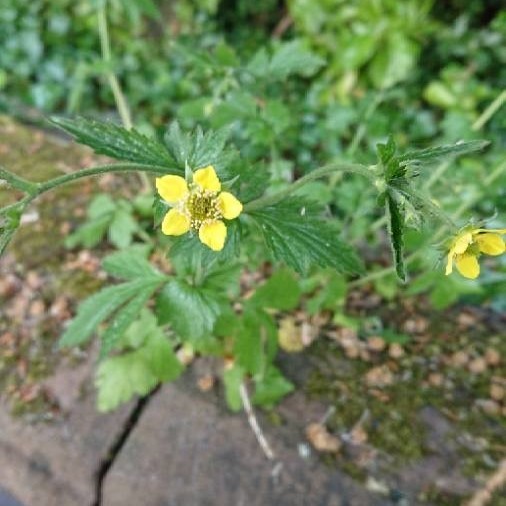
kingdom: Plantae
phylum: Tracheophyta
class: Magnoliopsida
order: Rosales
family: Rosaceae
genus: Geum
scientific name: Geum urbanum
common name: Wood avens
